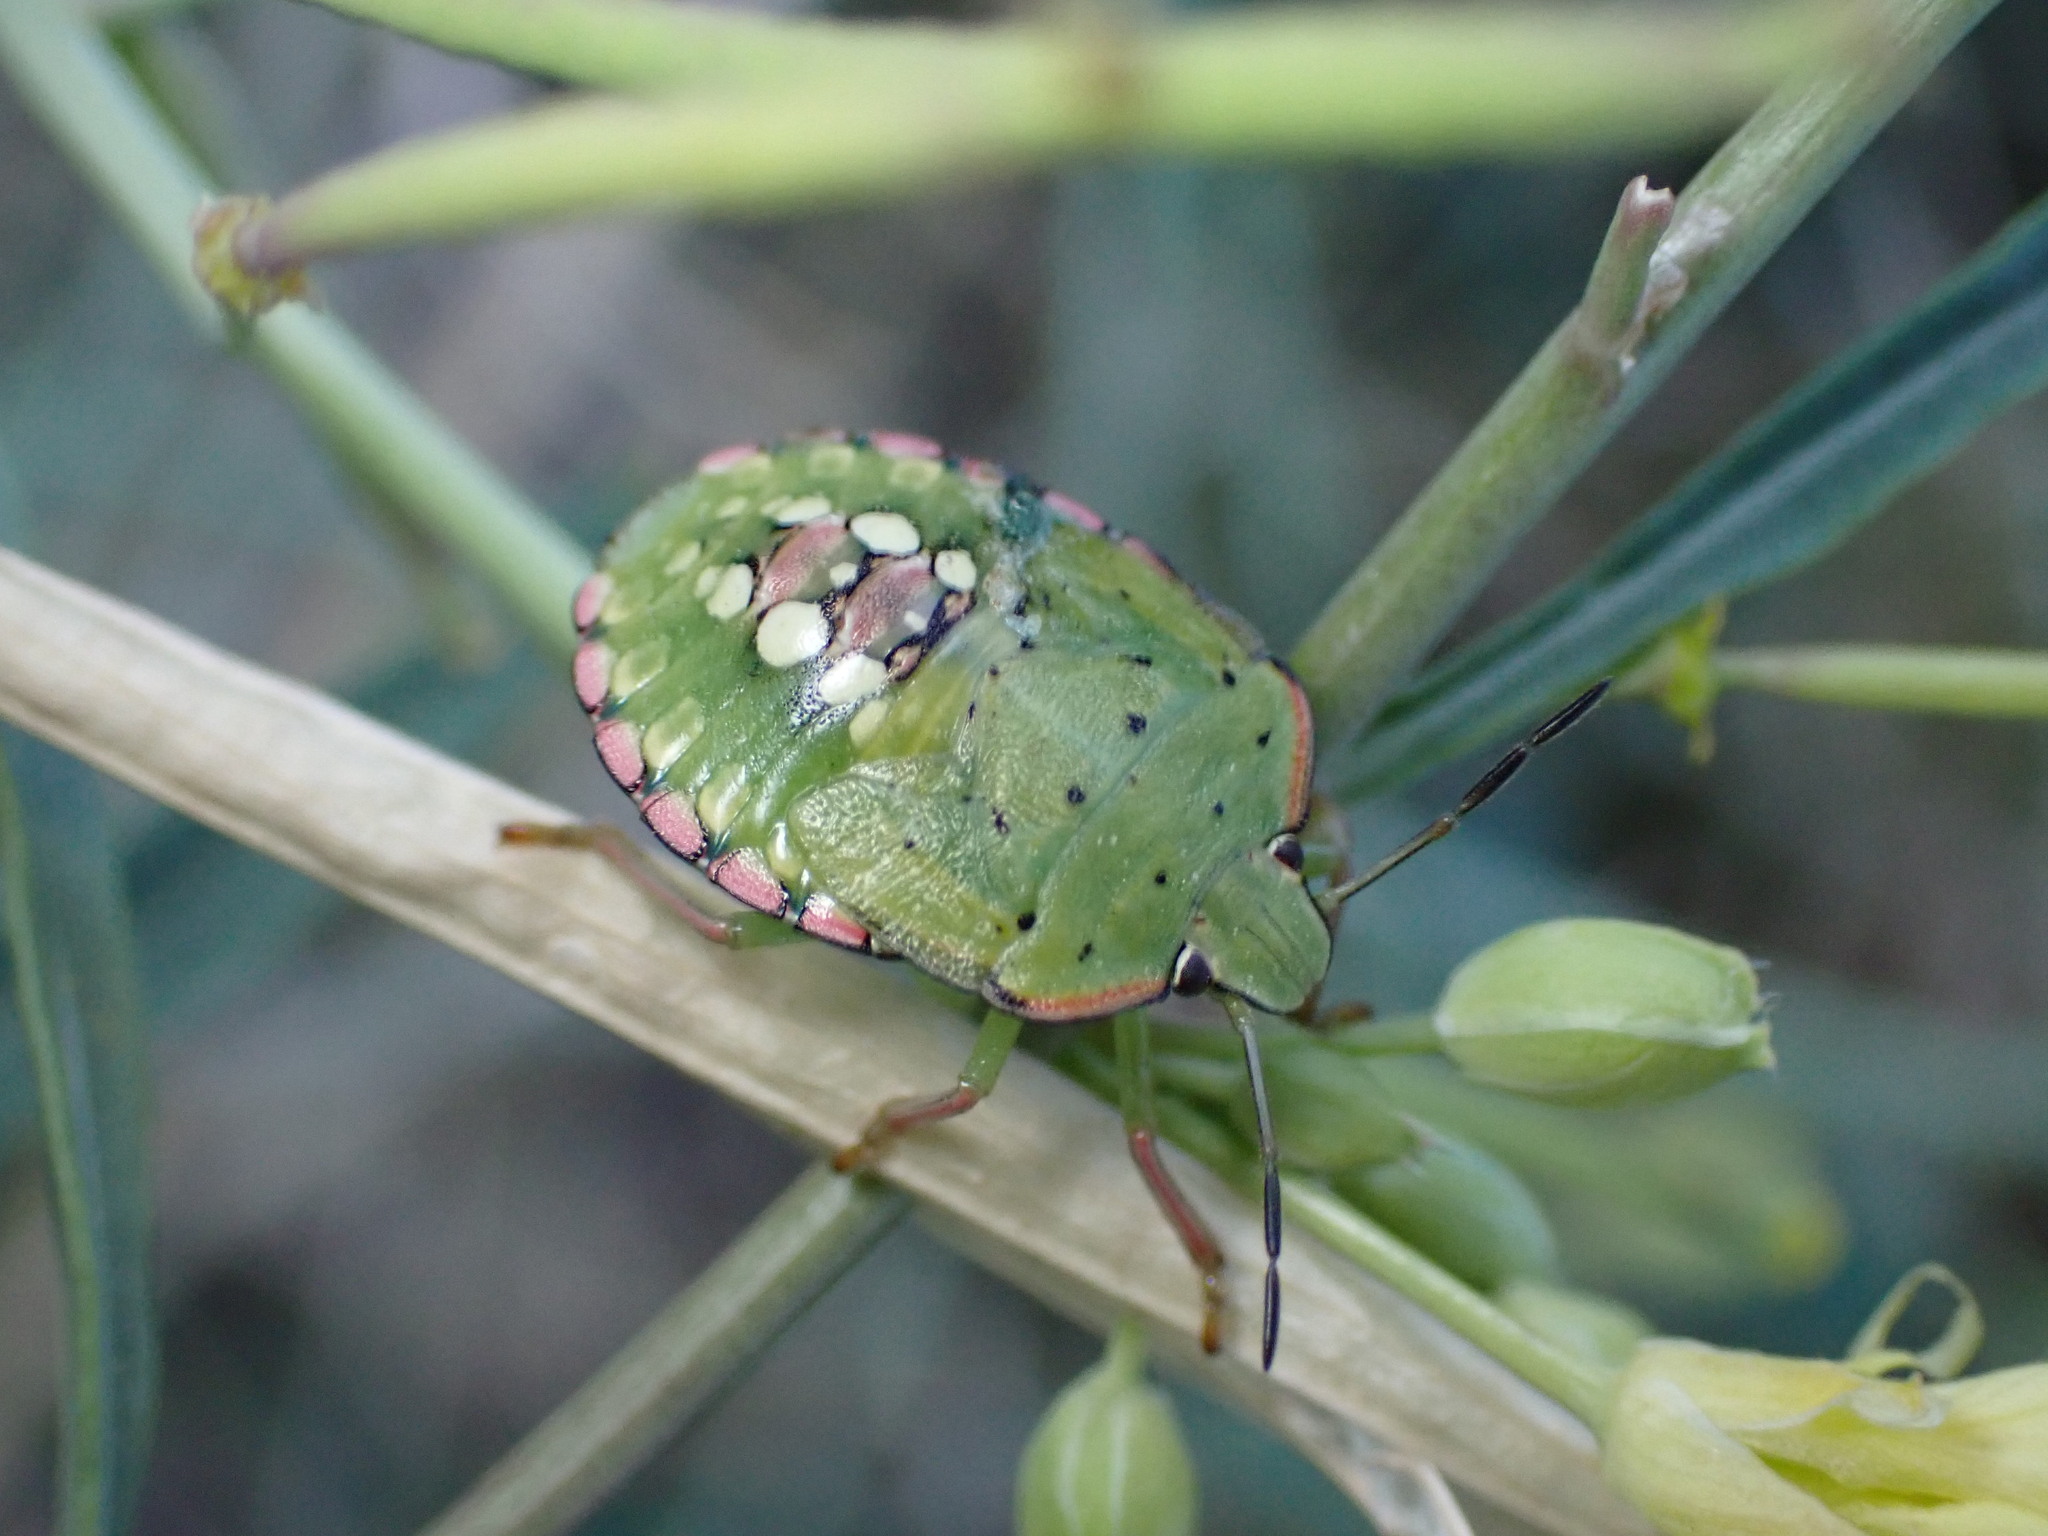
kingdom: Animalia
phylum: Arthropoda
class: Insecta
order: Hemiptera
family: Pentatomidae
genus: Nezara
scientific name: Nezara viridula
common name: Southern green stink bug
